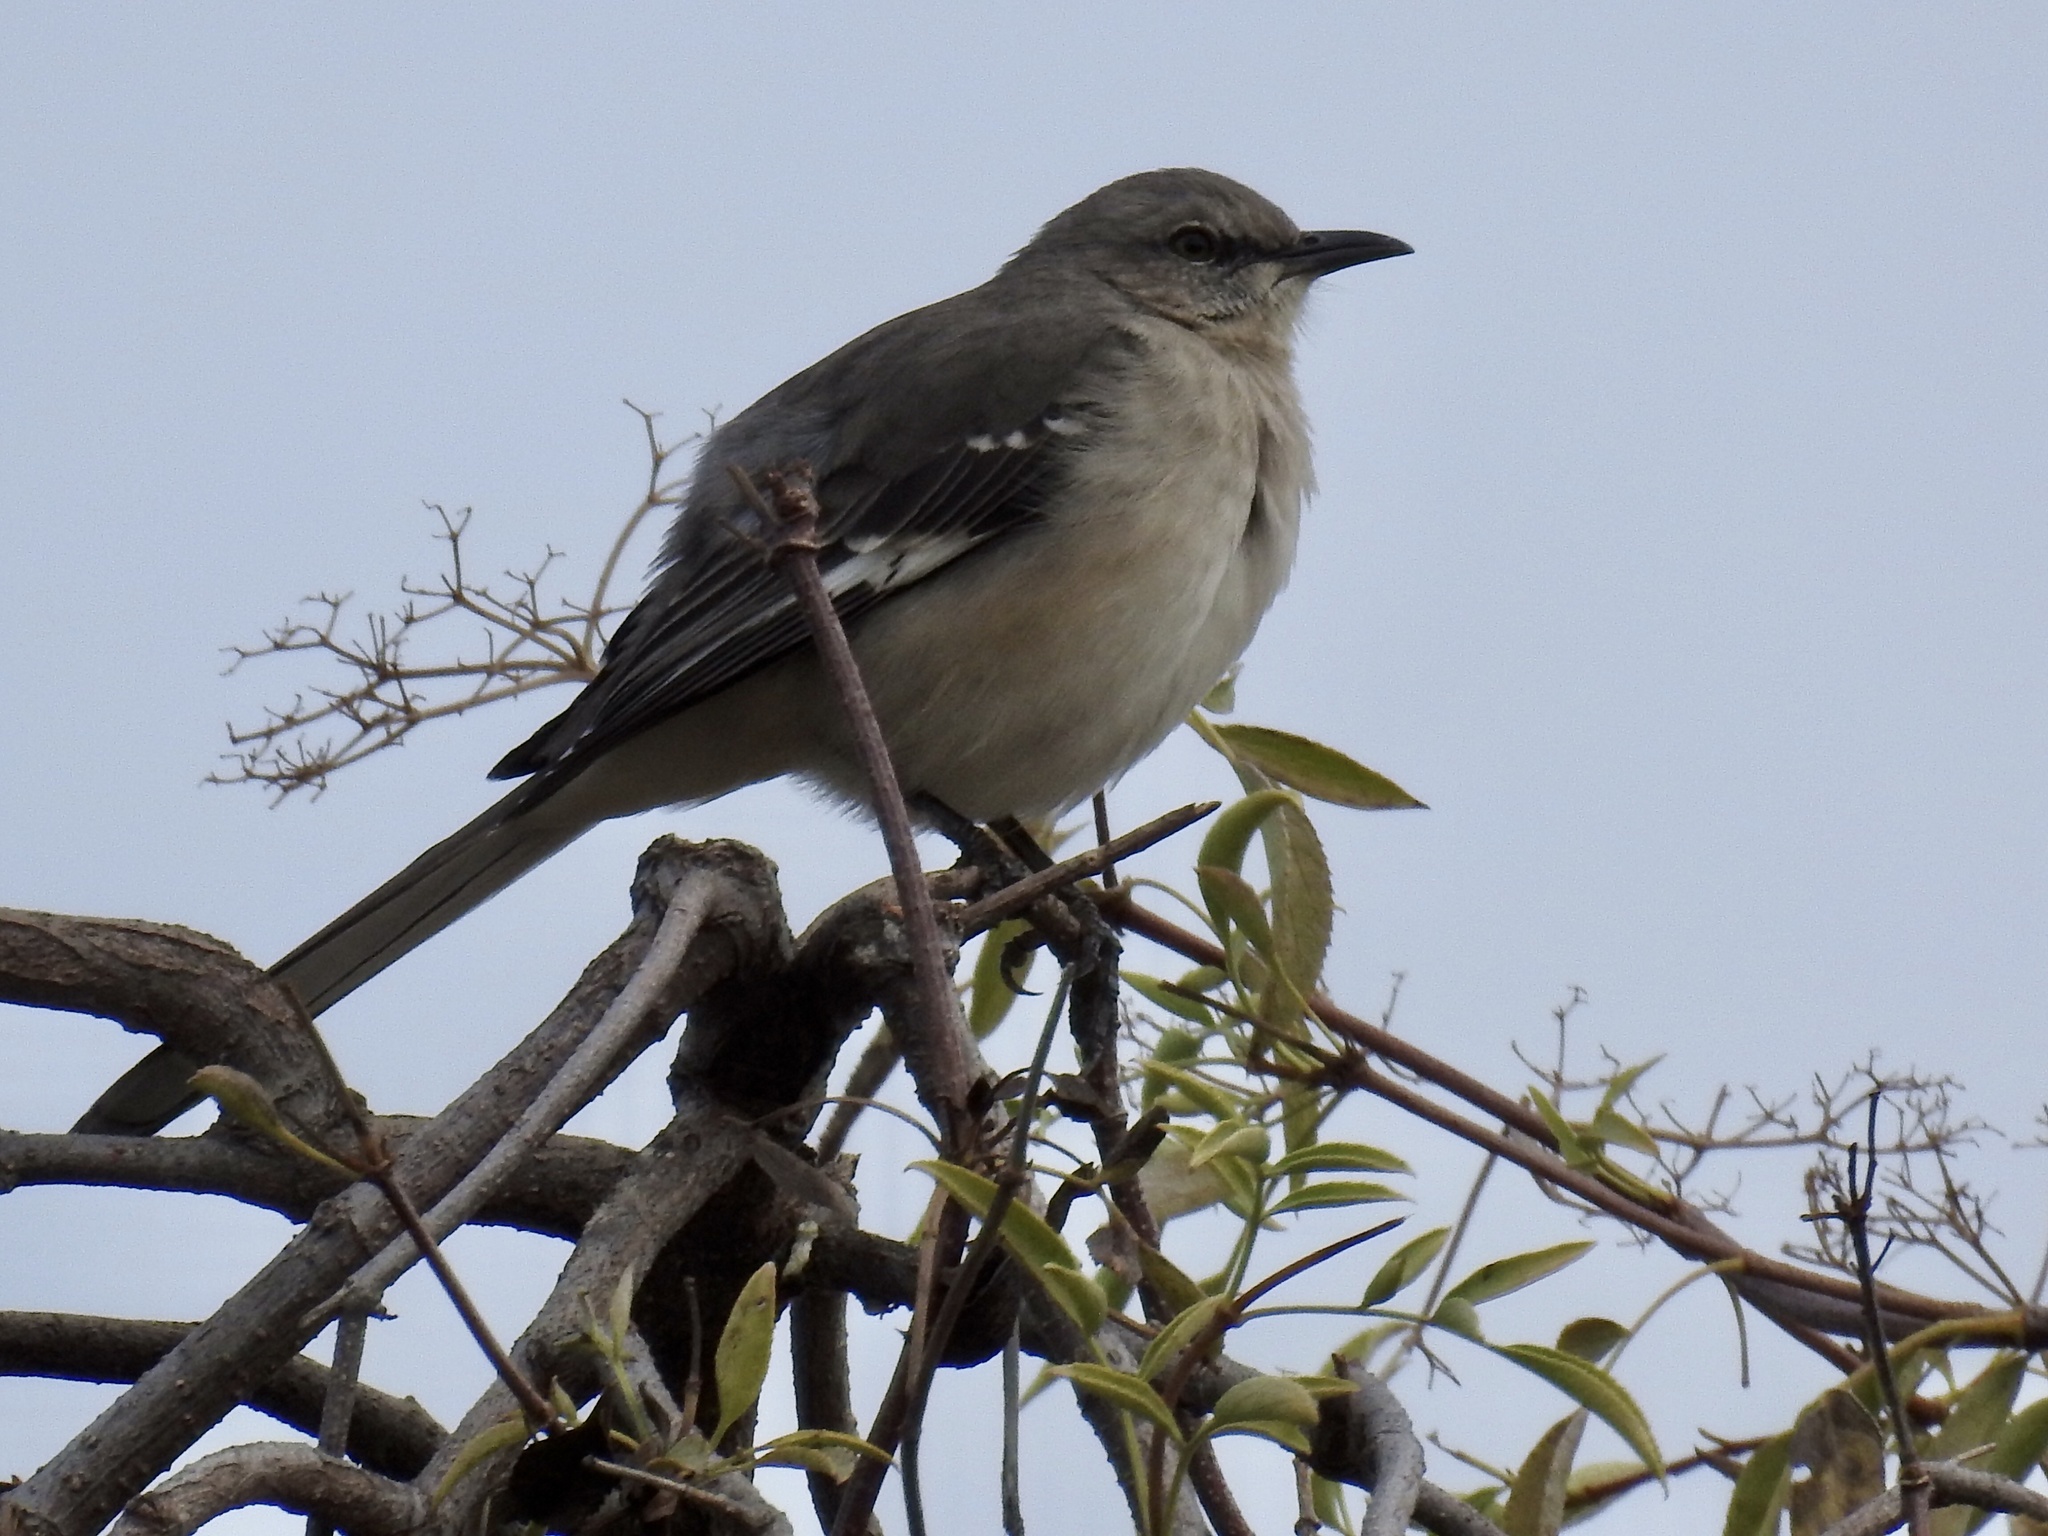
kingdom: Animalia
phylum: Chordata
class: Aves
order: Passeriformes
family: Mimidae
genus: Mimus
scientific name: Mimus polyglottos
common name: Northern mockingbird
